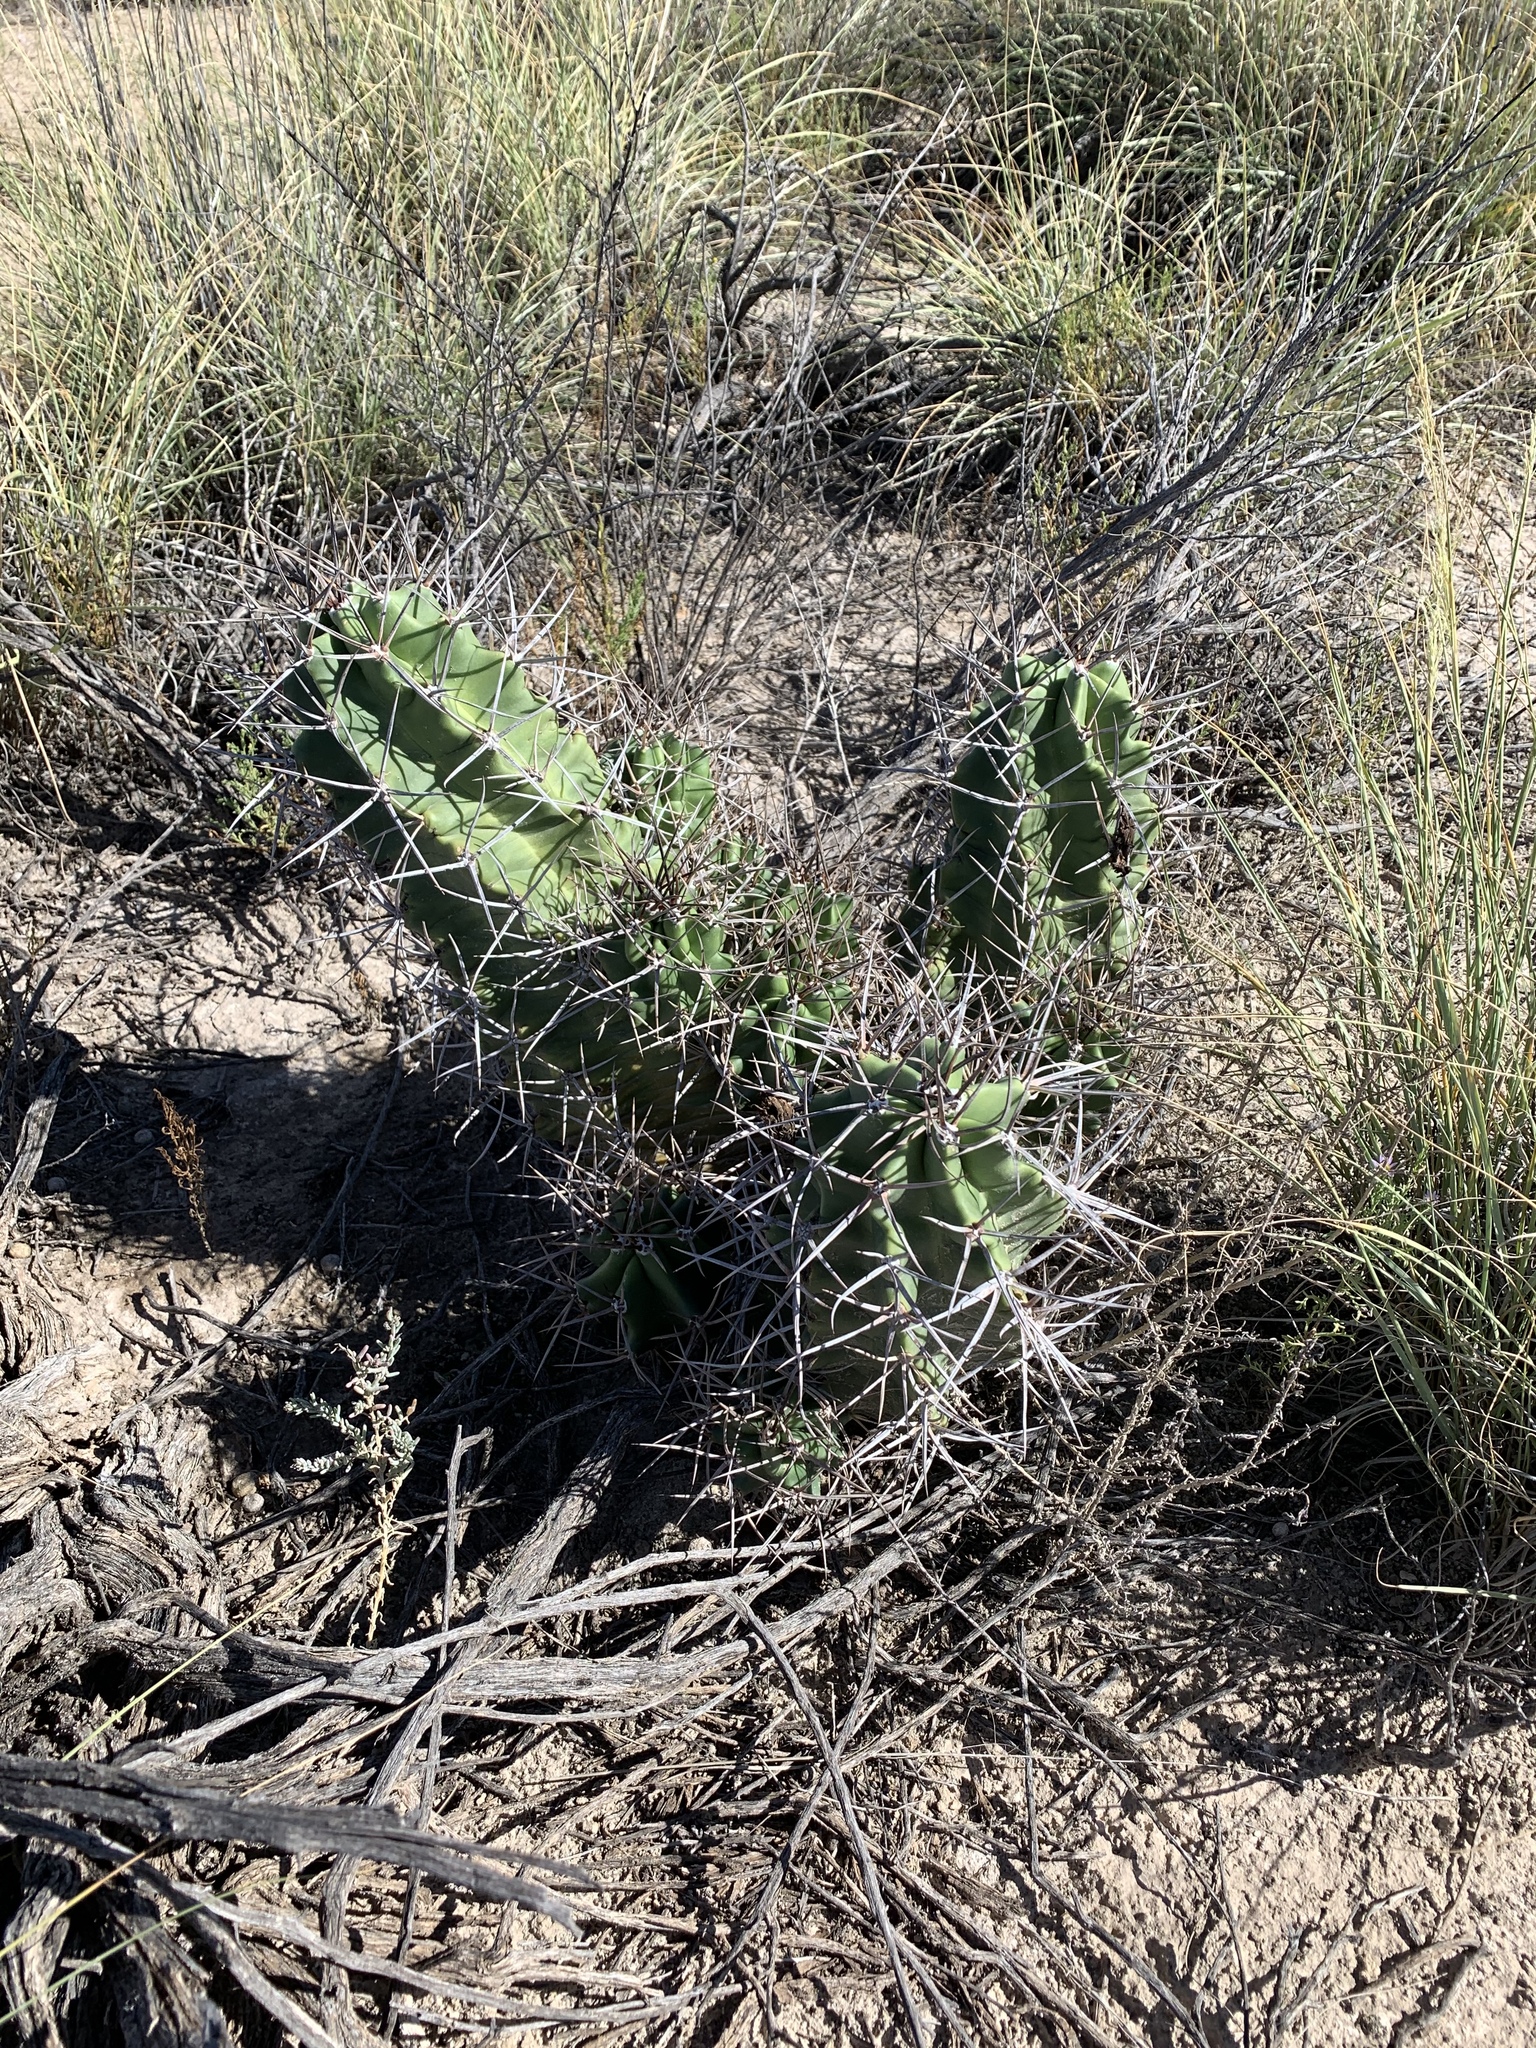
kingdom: Plantae
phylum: Tracheophyta
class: Magnoliopsida
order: Caryophyllales
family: Cactaceae
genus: Echinocereus
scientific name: Echinocereus triglochidiatus
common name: Claretcup hedgehog
